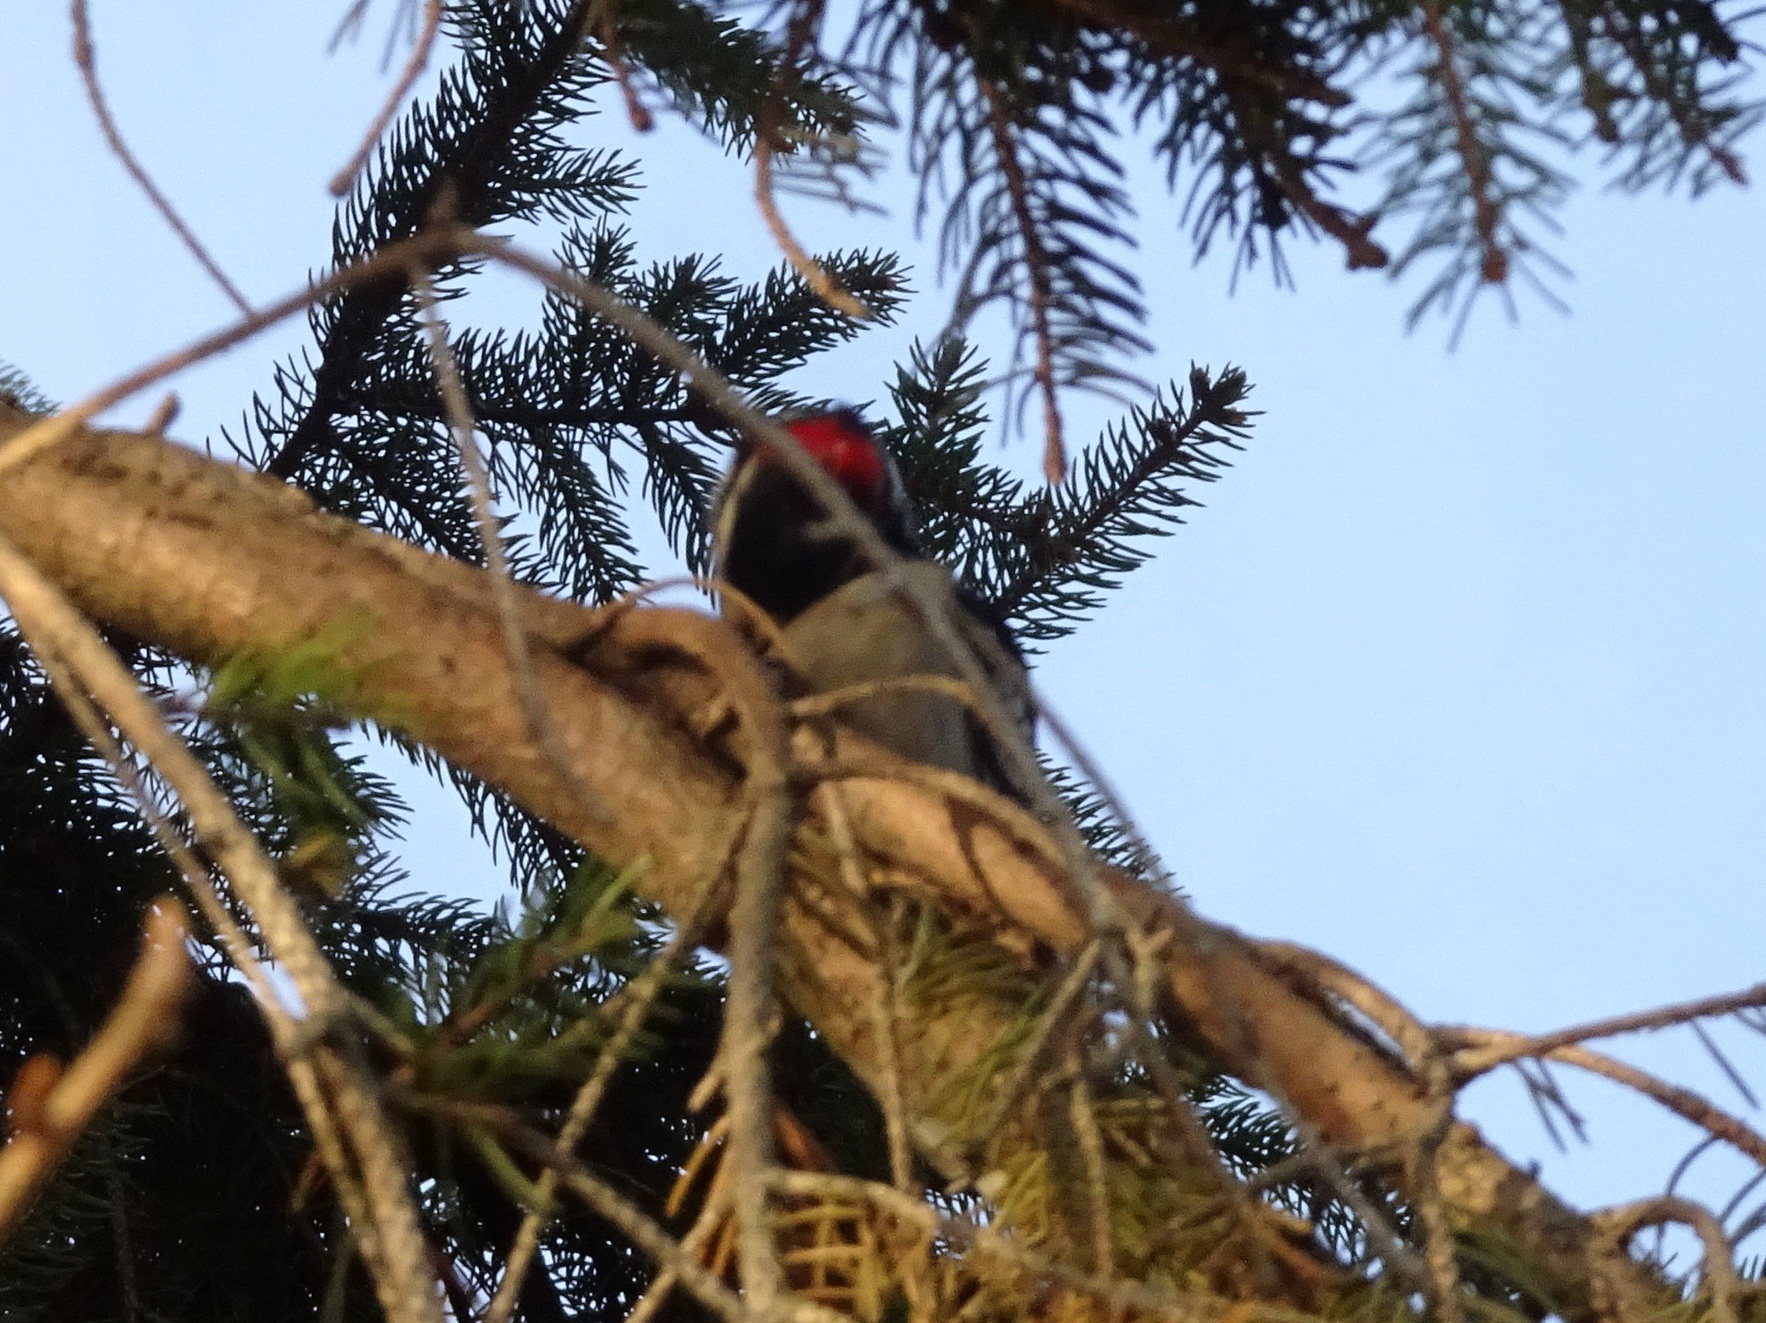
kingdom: Animalia
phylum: Chordata
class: Aves
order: Piciformes
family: Picidae
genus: Dryobates
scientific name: Dryobates pubescens
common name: Downy woodpecker
